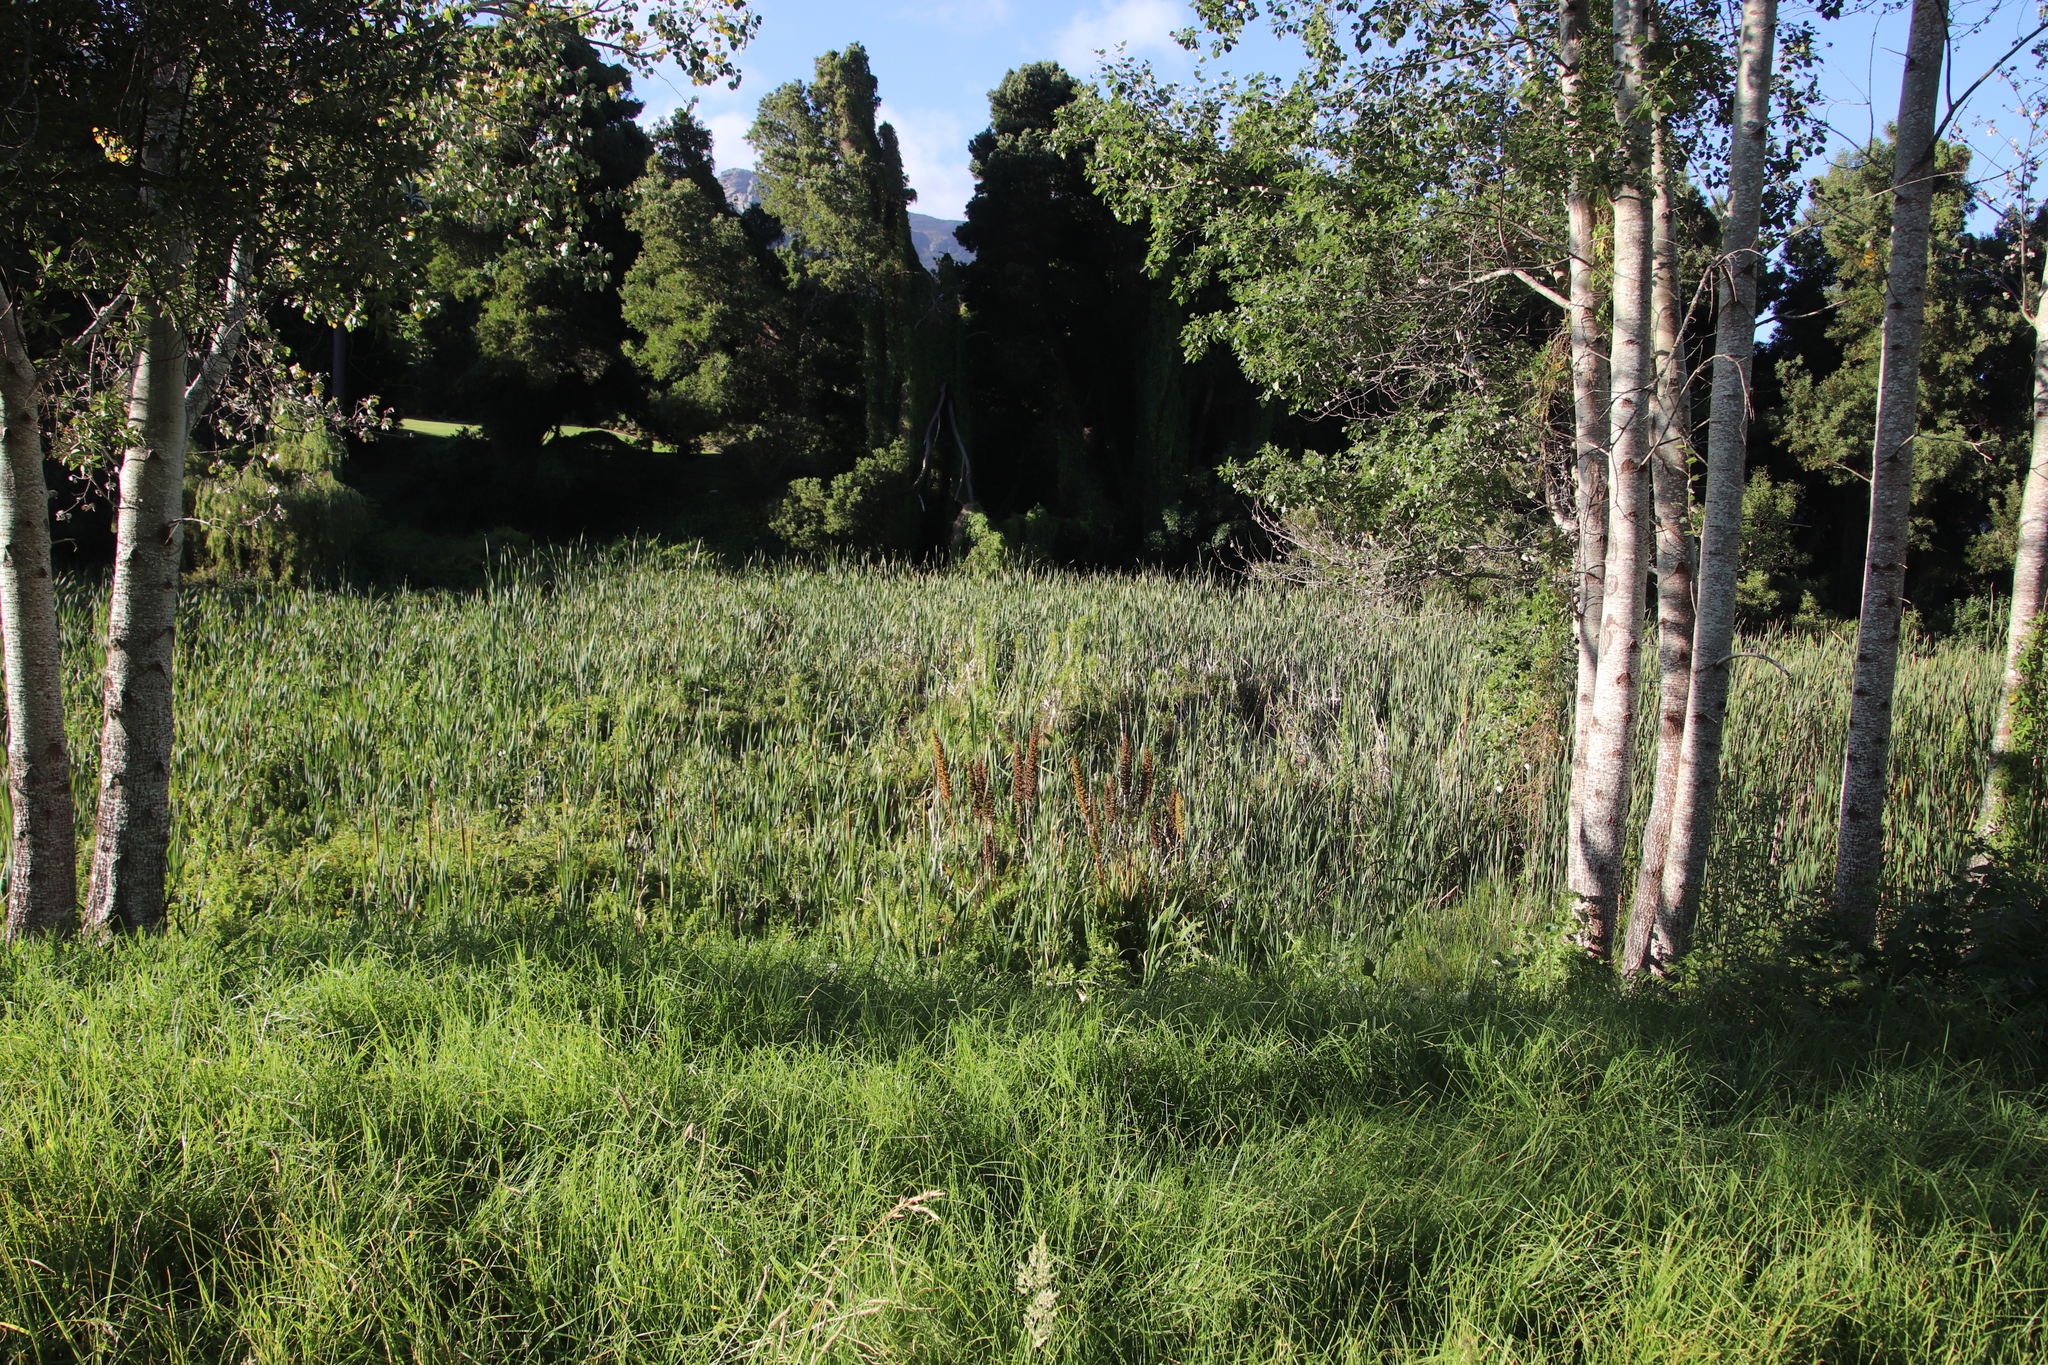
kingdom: Plantae
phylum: Tracheophyta
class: Liliopsida
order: Commelinales
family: Haemodoraceae
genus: Wachendorfia
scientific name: Wachendorfia thyrsiflora
